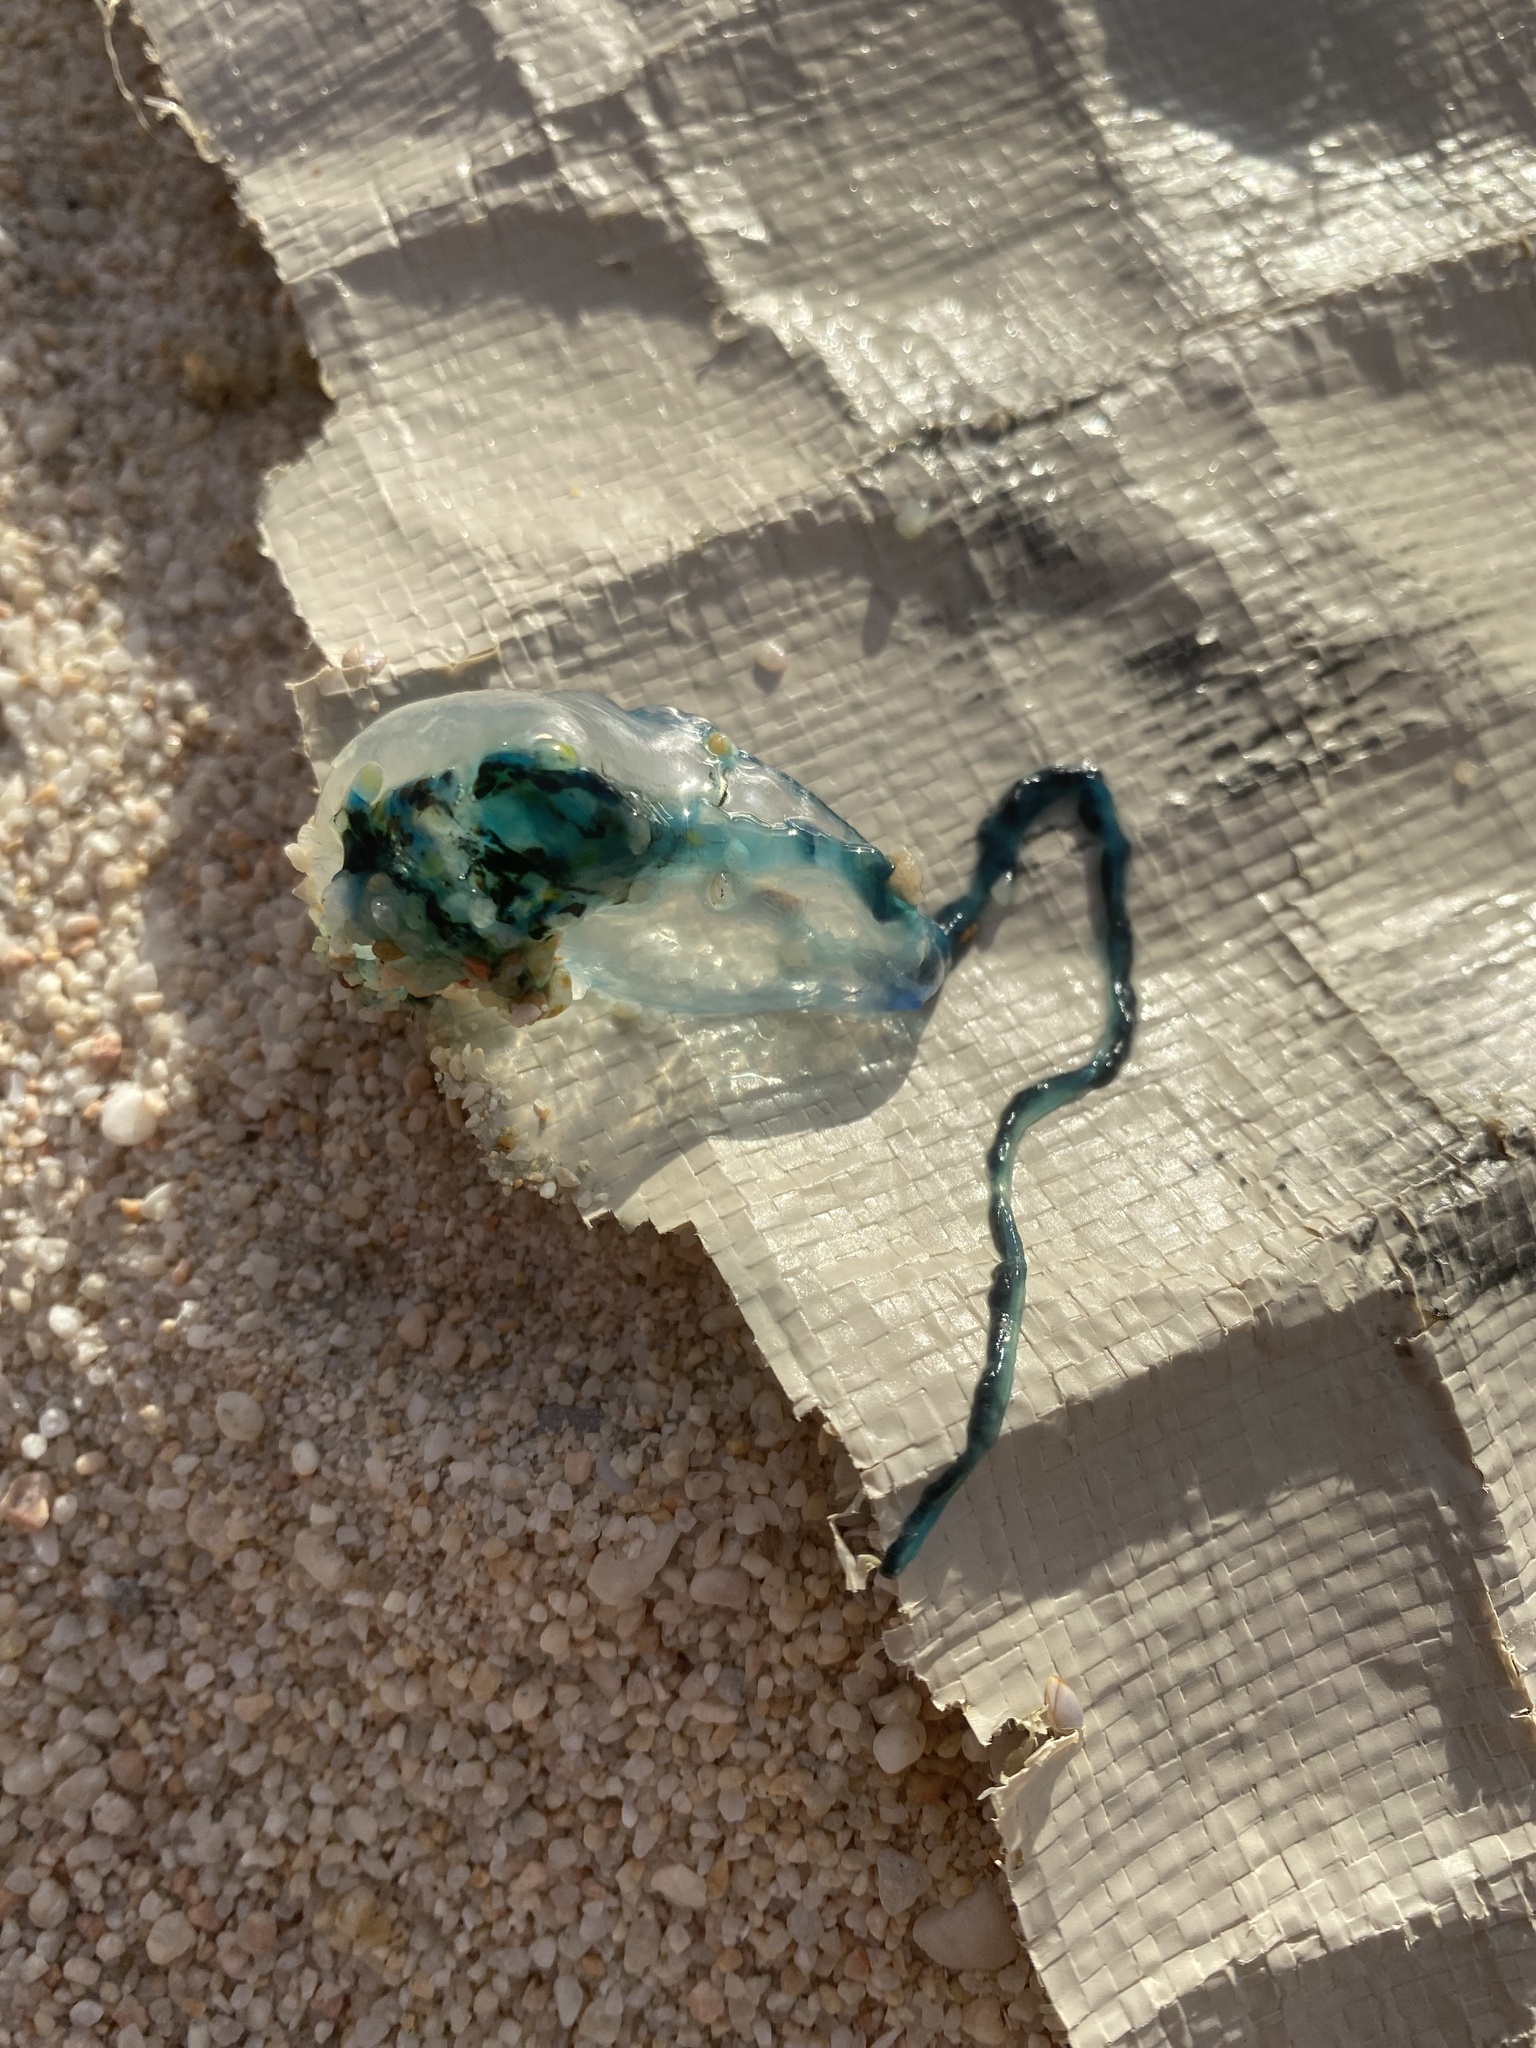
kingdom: Animalia
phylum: Cnidaria
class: Hydrozoa
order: Siphonophorae
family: Physaliidae
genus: Physalia
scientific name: Physalia physalis
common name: Portuguese man-of-war
